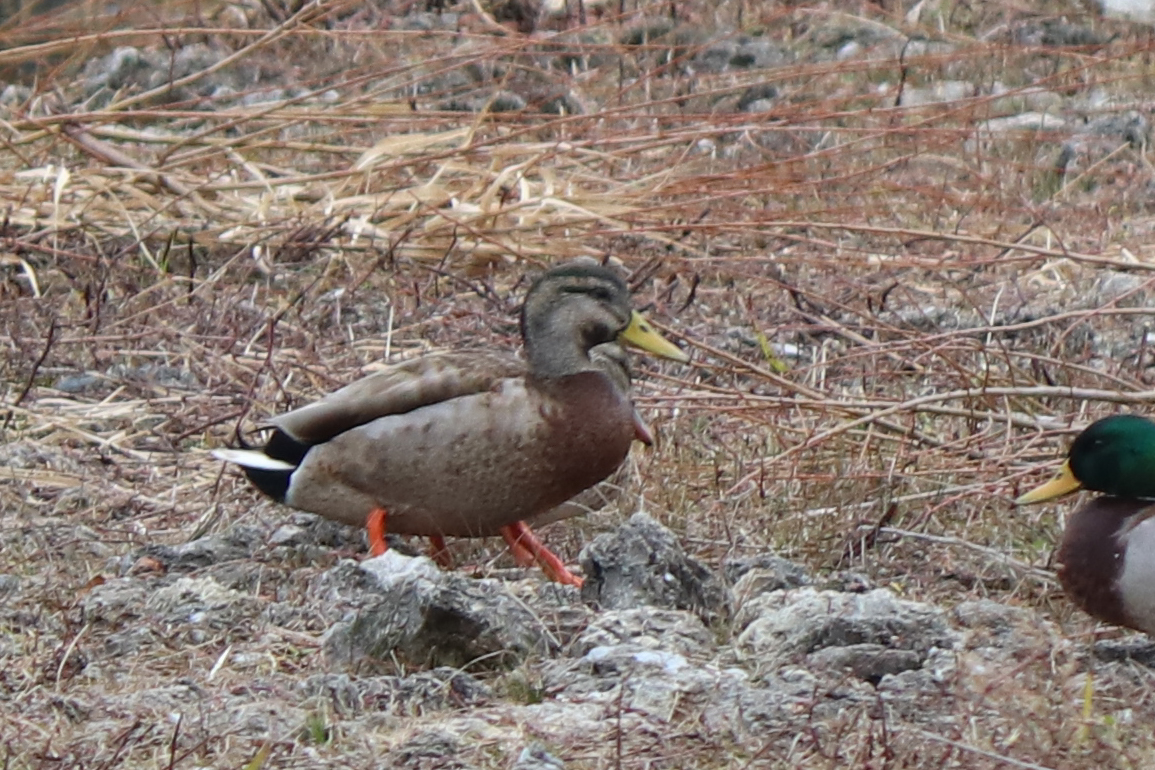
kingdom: Animalia
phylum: Chordata
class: Aves
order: Anseriformes
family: Anatidae
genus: Anas
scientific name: Anas platyrhynchos
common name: Mallard
